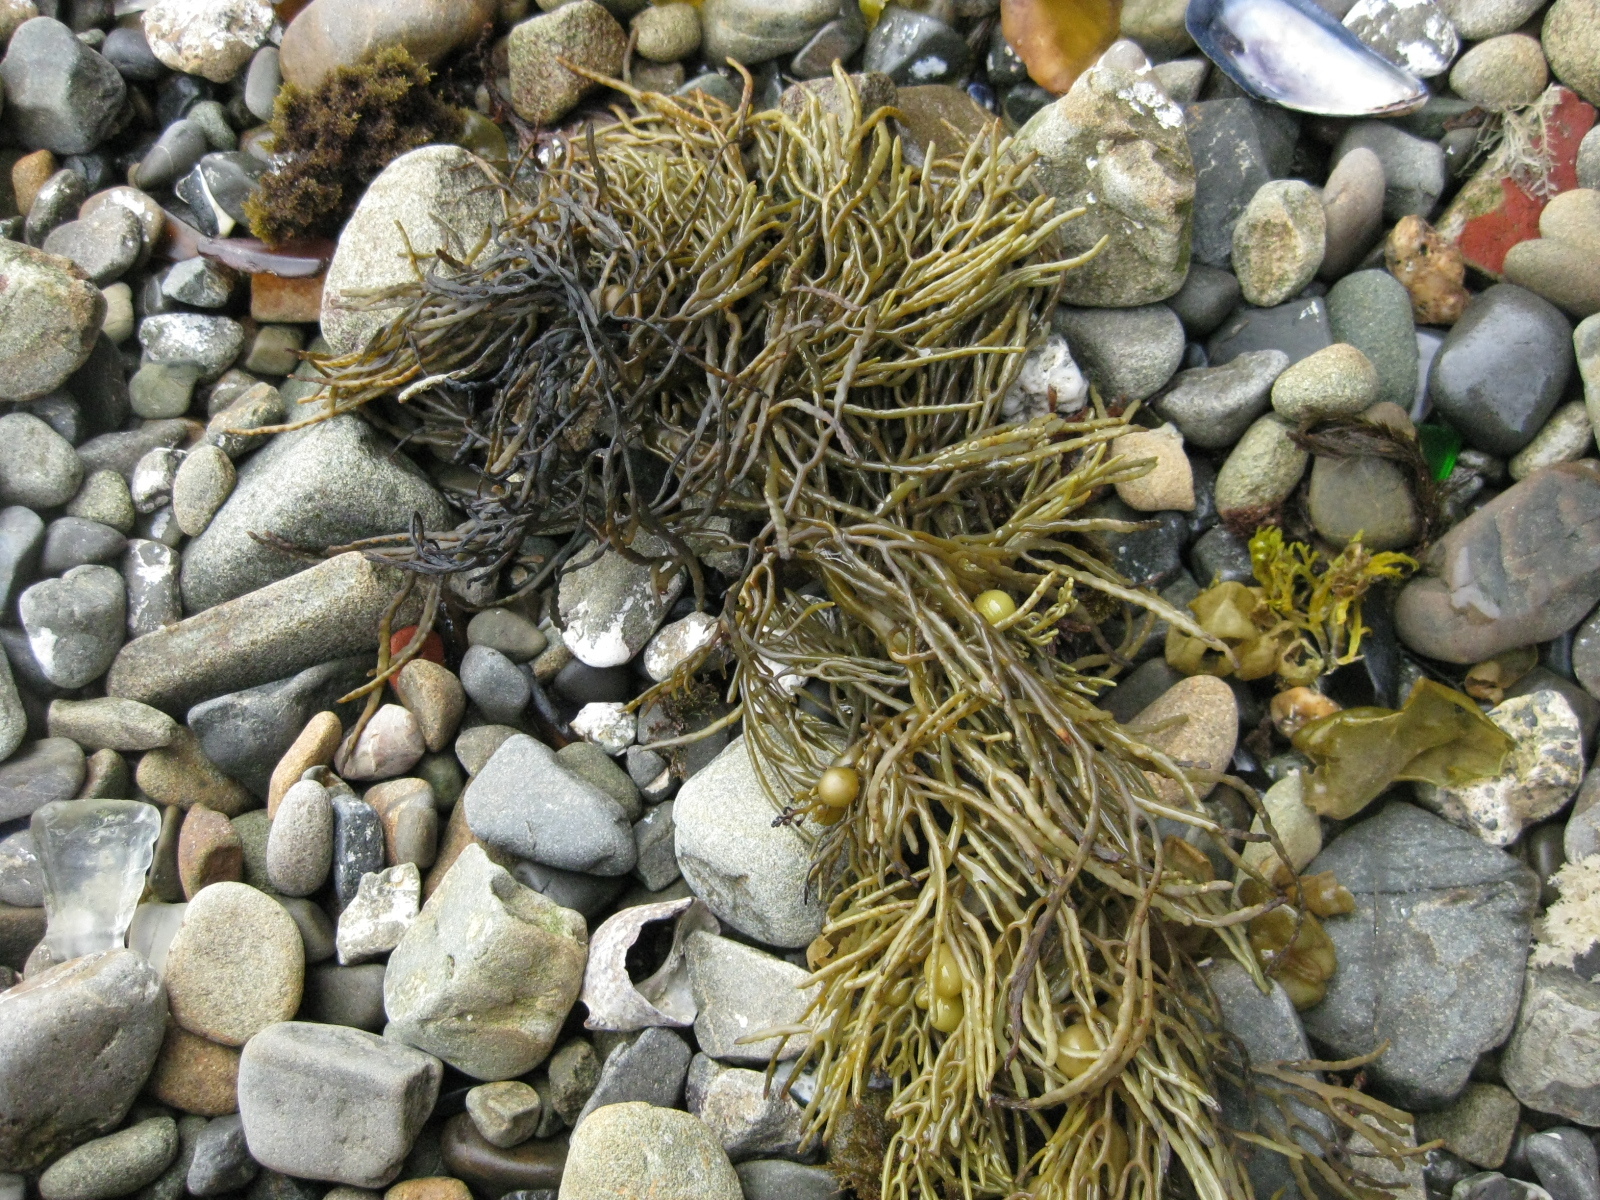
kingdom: Chromista
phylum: Ochrophyta
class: Phaeophyceae
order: Fucales
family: Sargassaceae
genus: Cystophora
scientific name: Cystophora retroflexa
